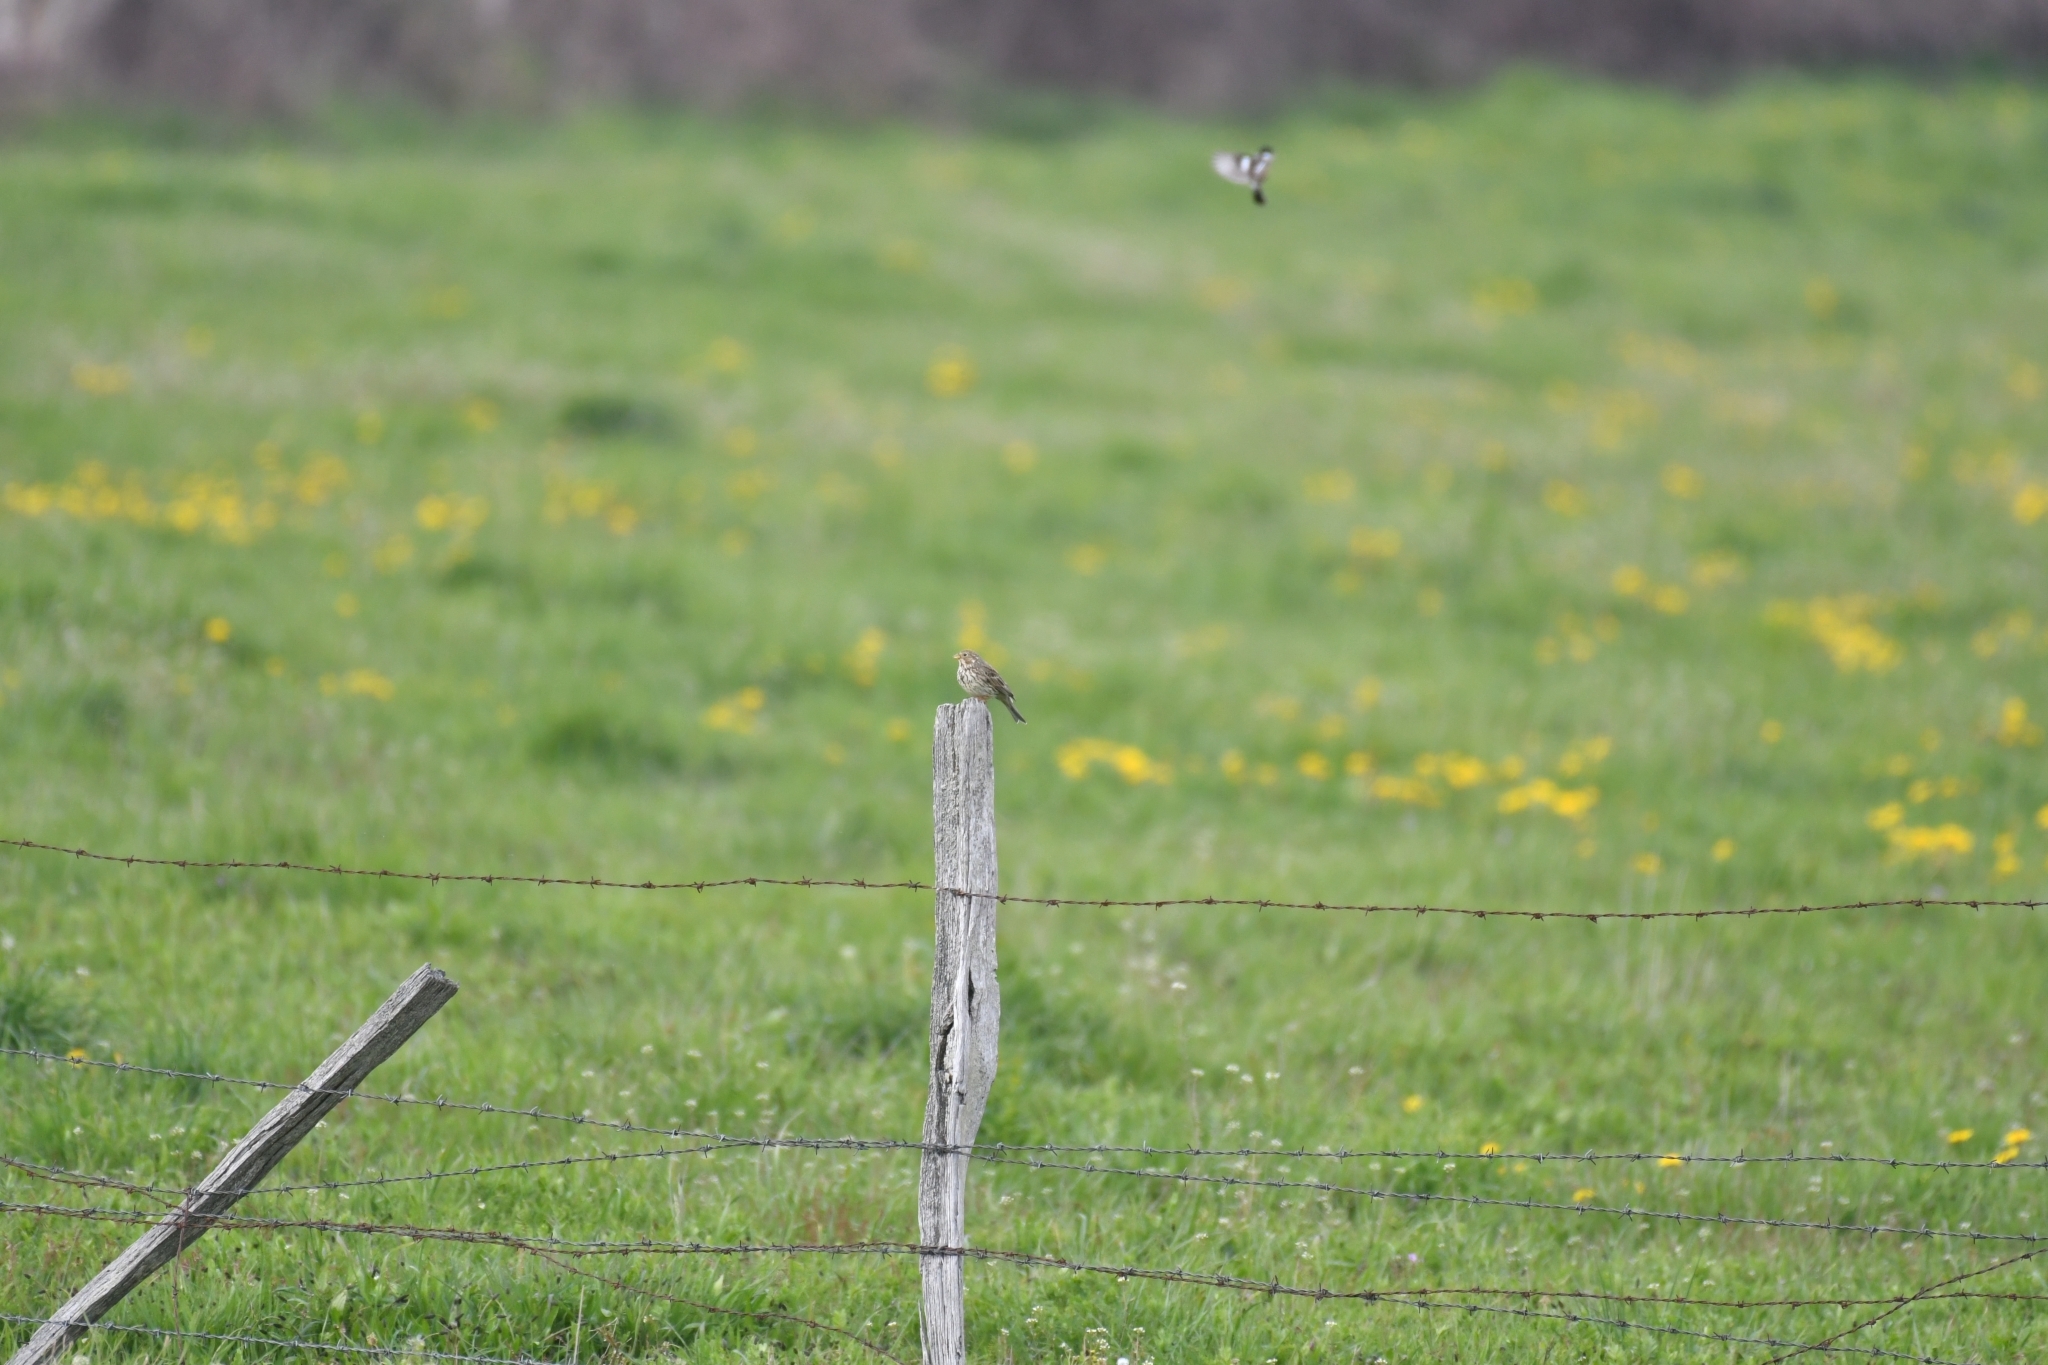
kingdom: Animalia
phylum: Chordata
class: Aves
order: Passeriformes
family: Emberizidae
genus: Emberiza
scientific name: Emberiza calandra
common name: Corn bunting
